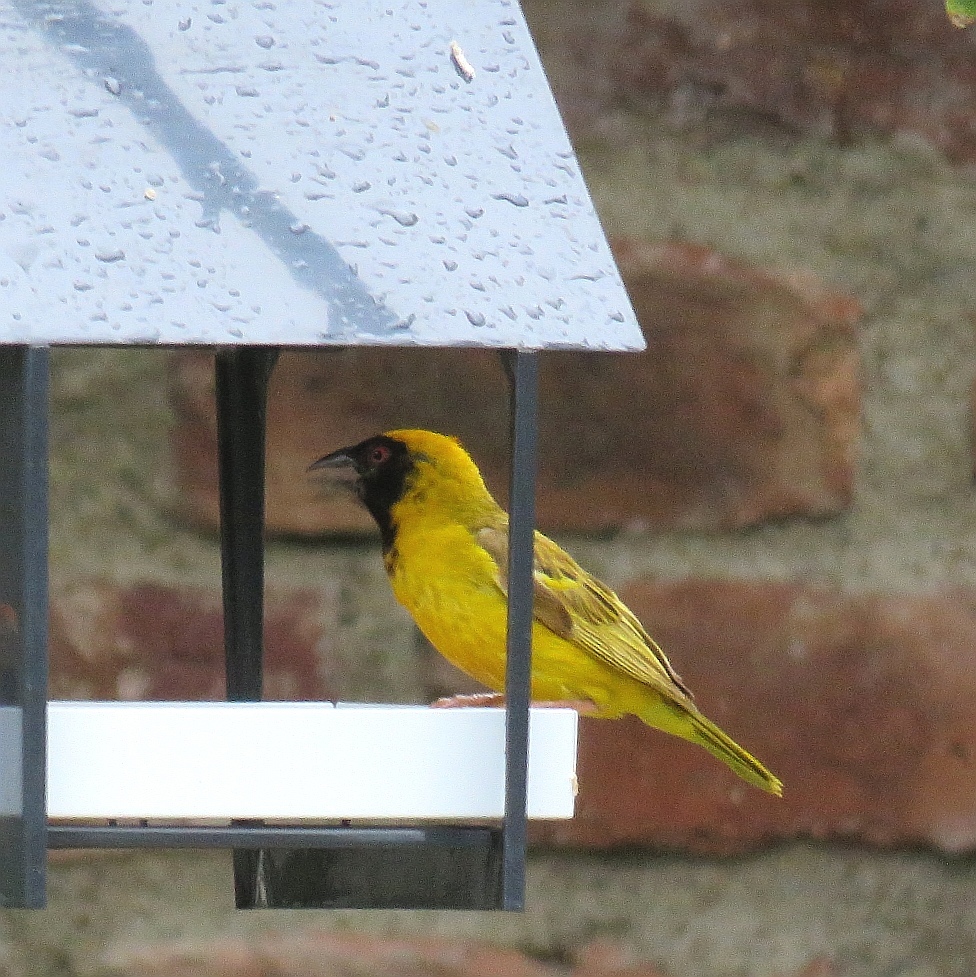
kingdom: Animalia
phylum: Chordata
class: Aves
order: Passeriformes
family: Ploceidae
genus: Ploceus
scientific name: Ploceus velatus
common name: Southern masked weaver
